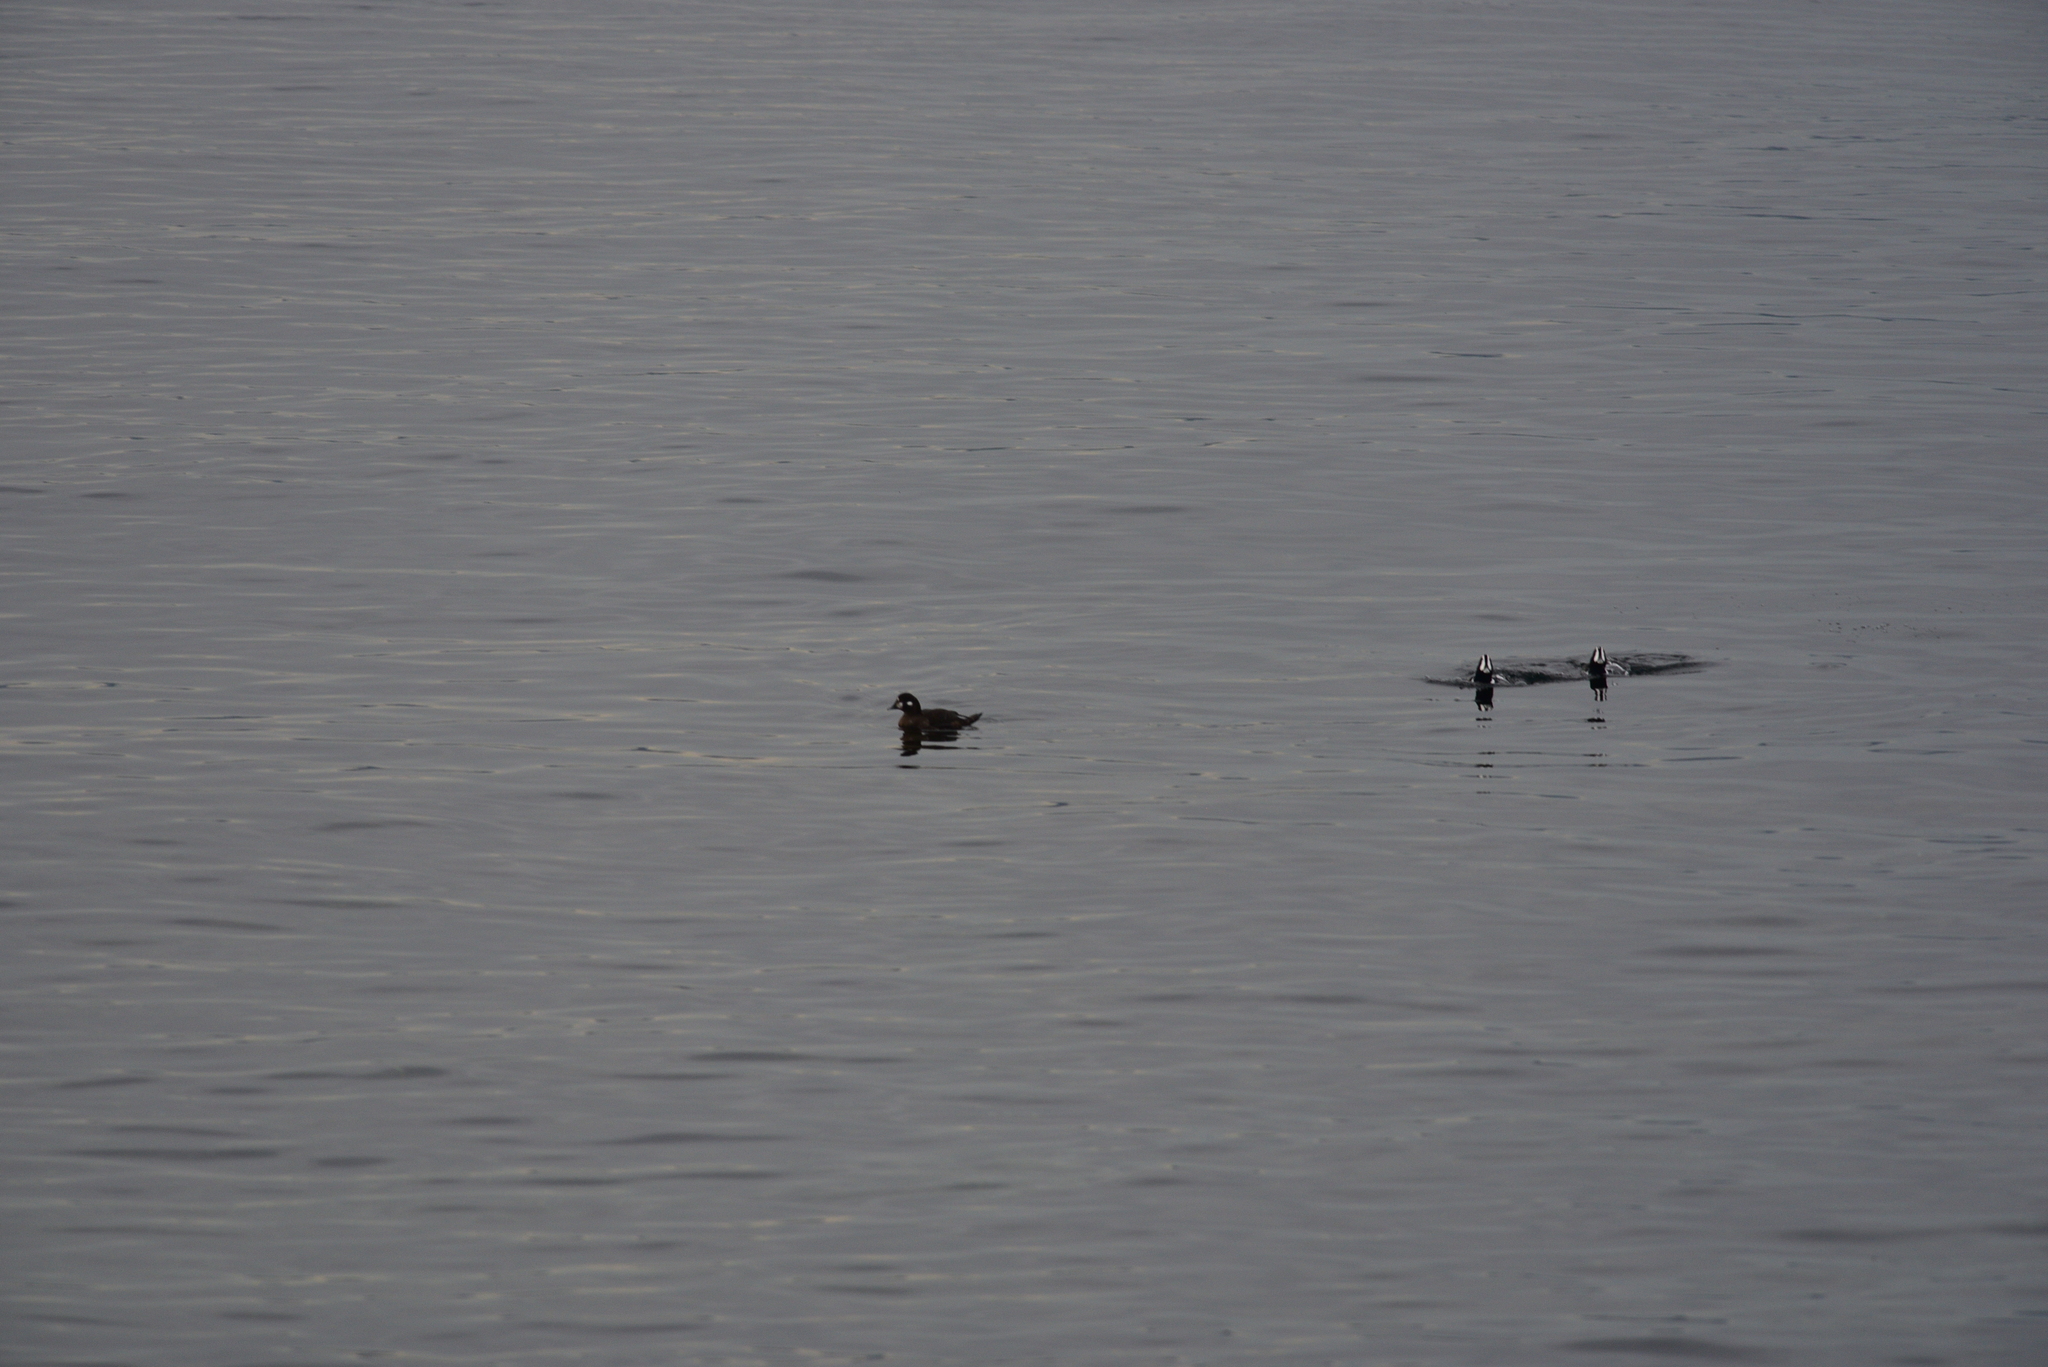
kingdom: Animalia
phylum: Chordata
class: Aves
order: Anseriformes
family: Anatidae
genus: Histrionicus
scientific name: Histrionicus histrionicus
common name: Harlequin duck
